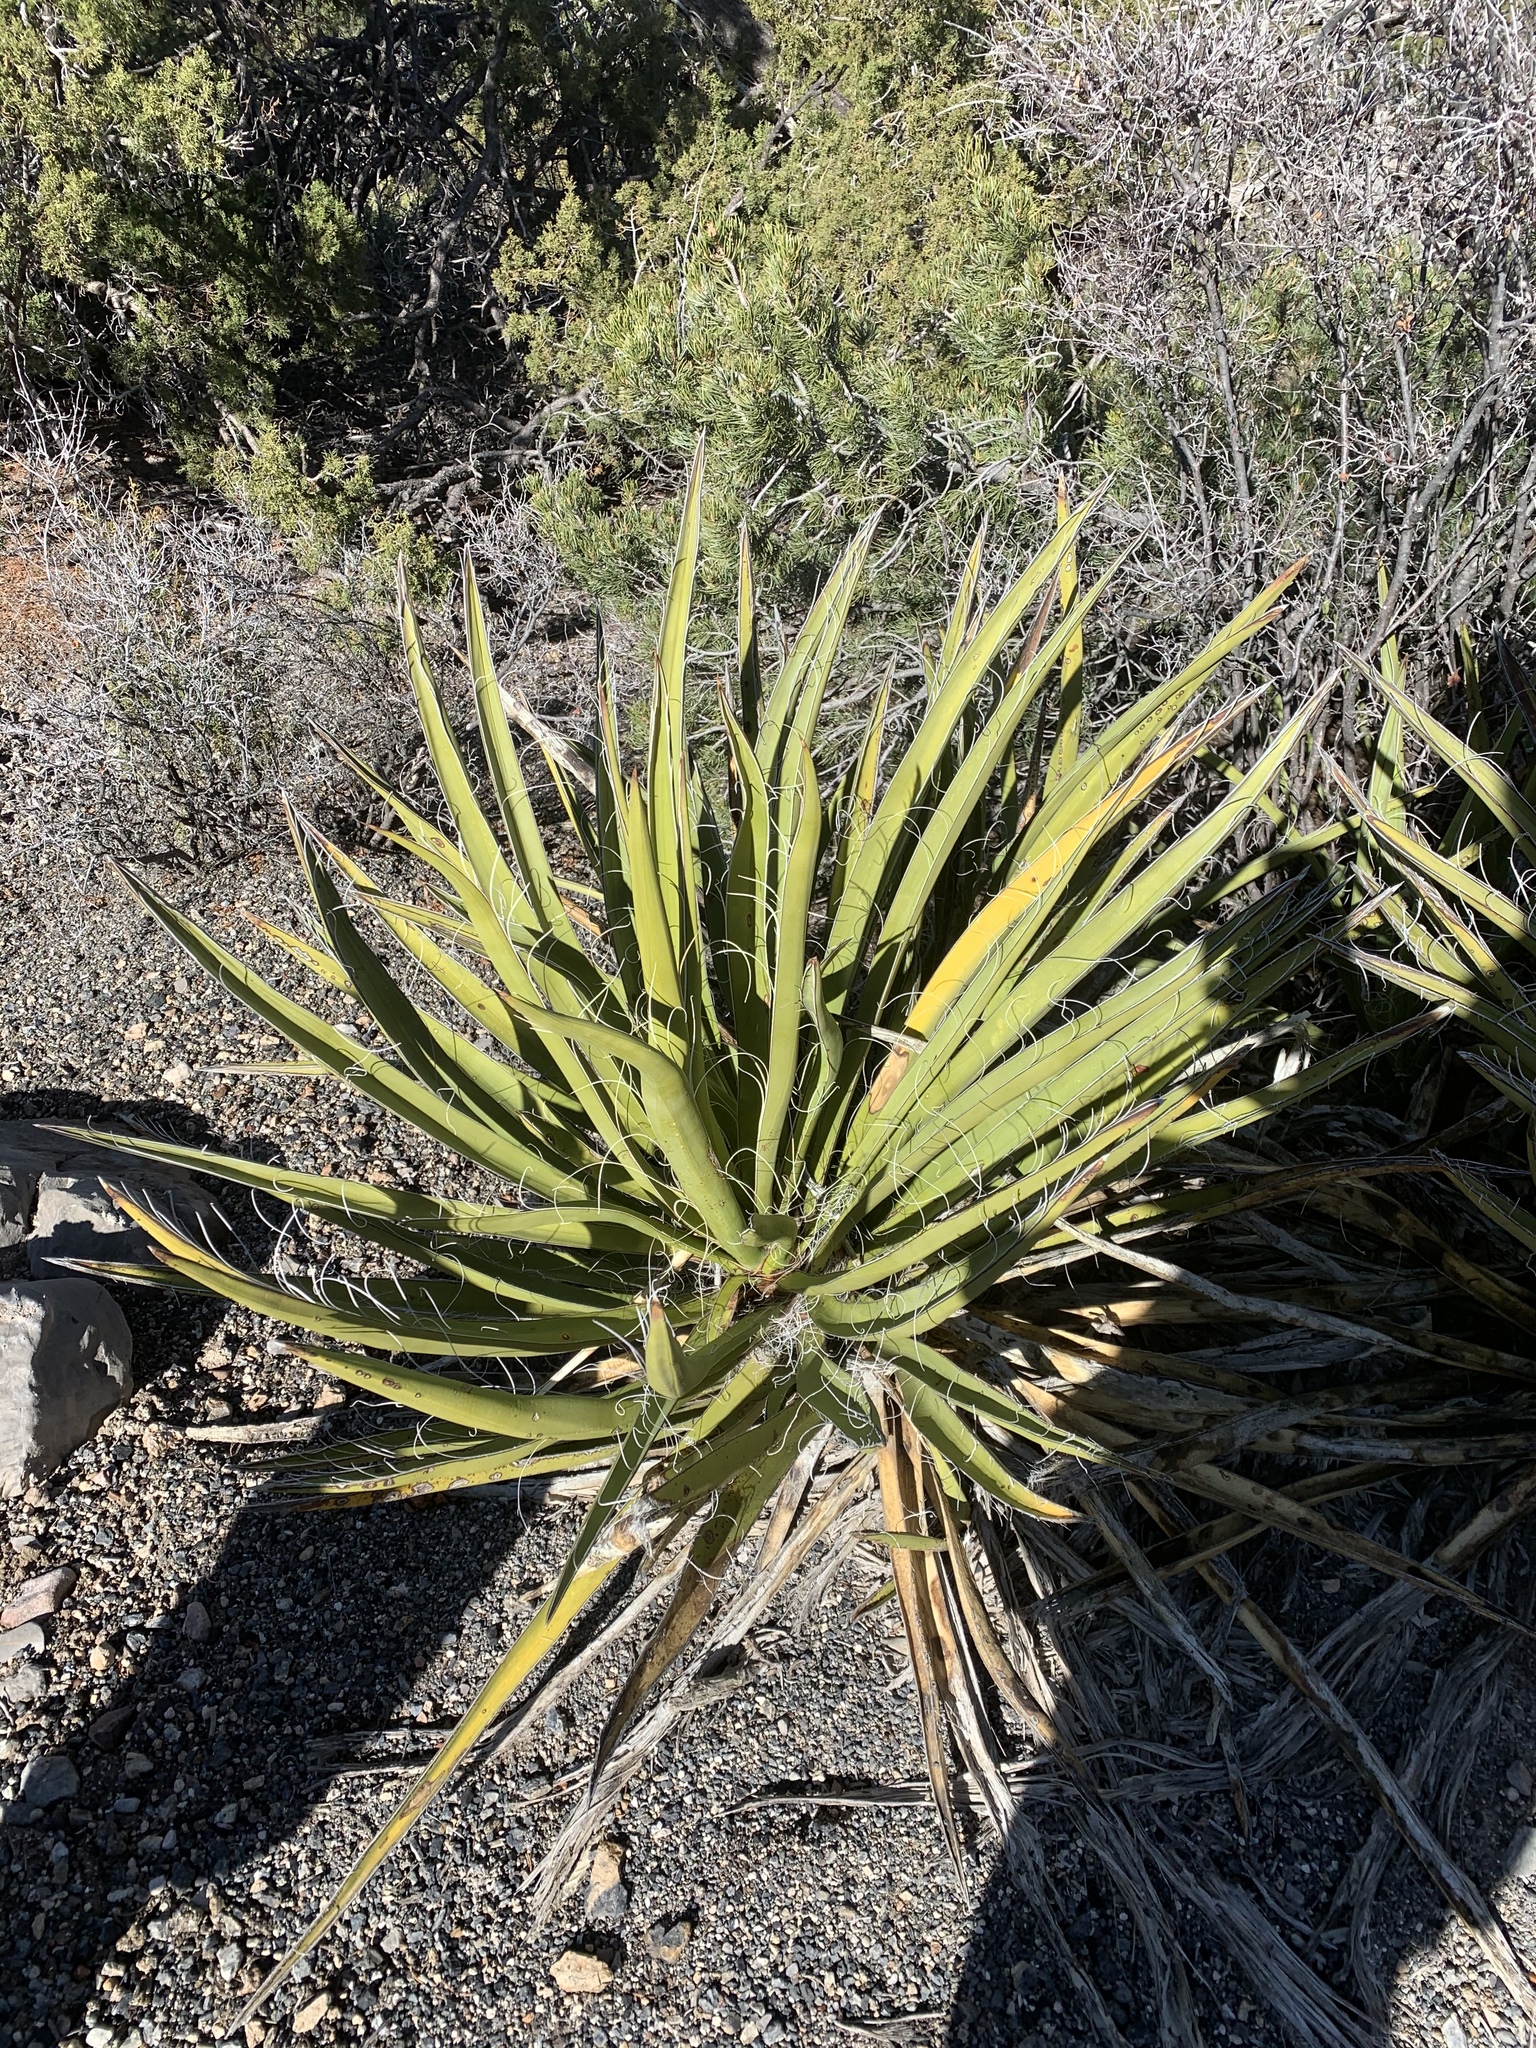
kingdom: Plantae
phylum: Tracheophyta
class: Liliopsida
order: Asparagales
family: Asparagaceae
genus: Yucca
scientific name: Yucca baccata
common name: Banana yucca
